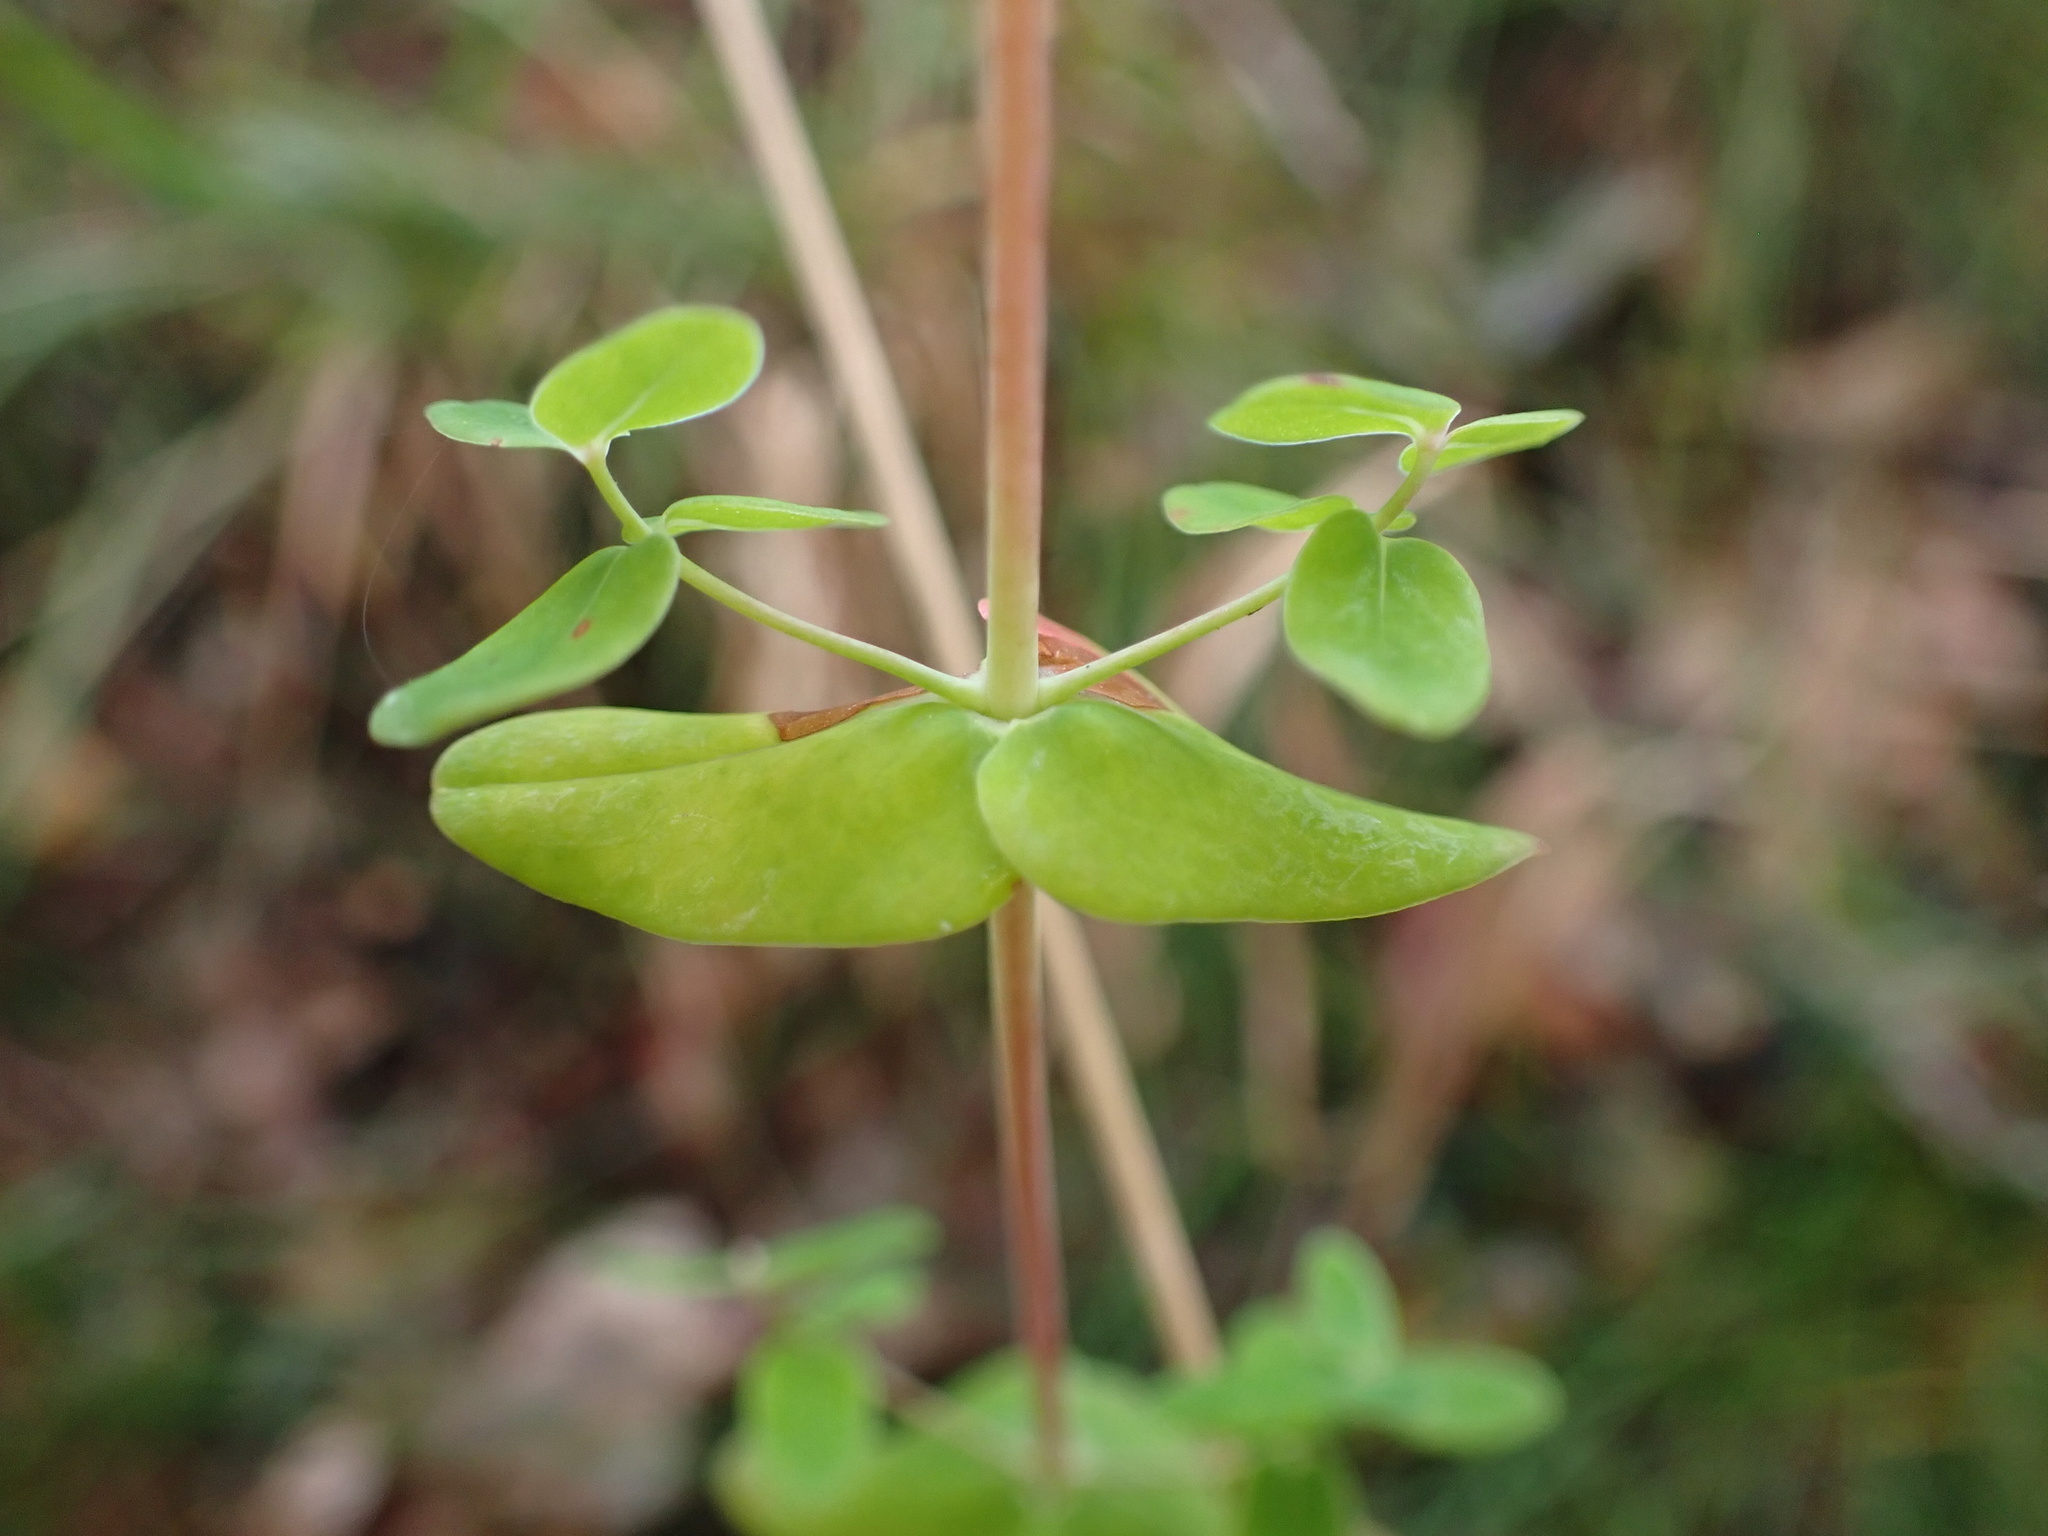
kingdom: Plantae
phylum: Tracheophyta
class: Magnoliopsida
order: Malpighiales
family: Hypericaceae
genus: Hypericum
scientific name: Hypericum pulchrum
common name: Slender st. john's-wort
